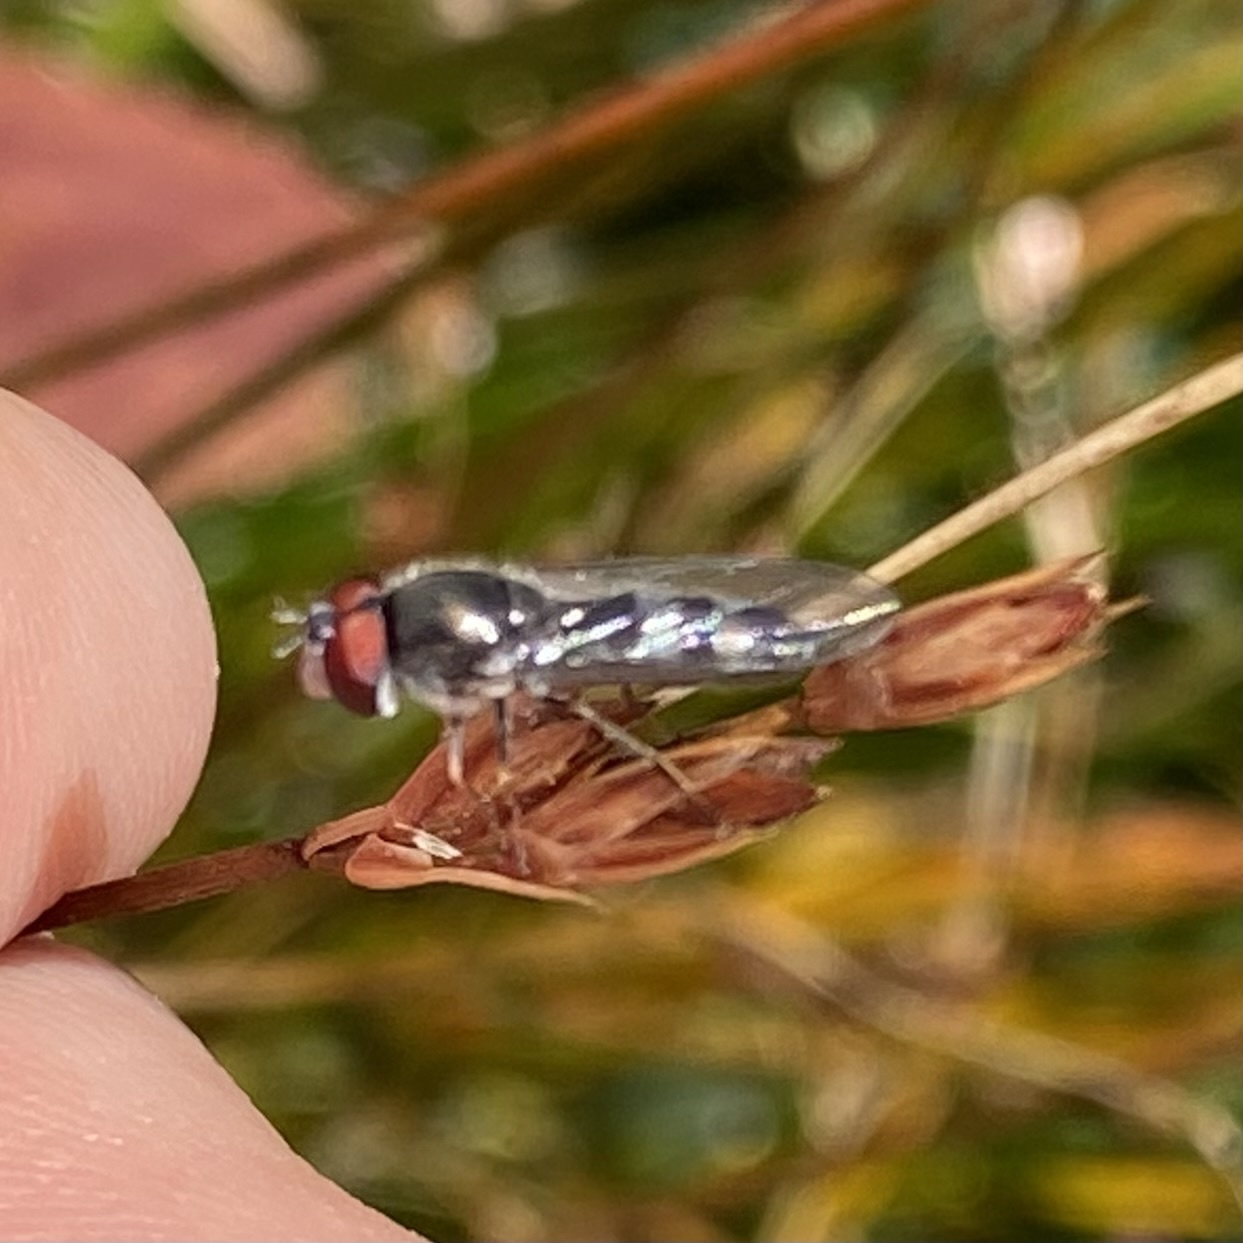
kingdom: Animalia
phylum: Arthropoda
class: Insecta
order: Diptera
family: Syrphidae
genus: Platycheirus
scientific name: Platycheirus
